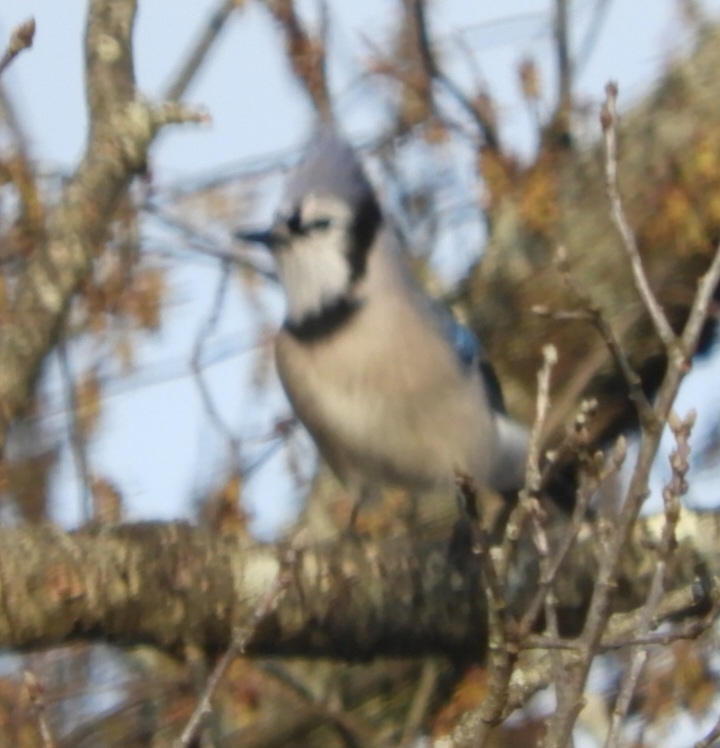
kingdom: Animalia
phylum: Chordata
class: Aves
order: Passeriformes
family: Corvidae
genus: Cyanocitta
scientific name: Cyanocitta cristata
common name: Blue jay
